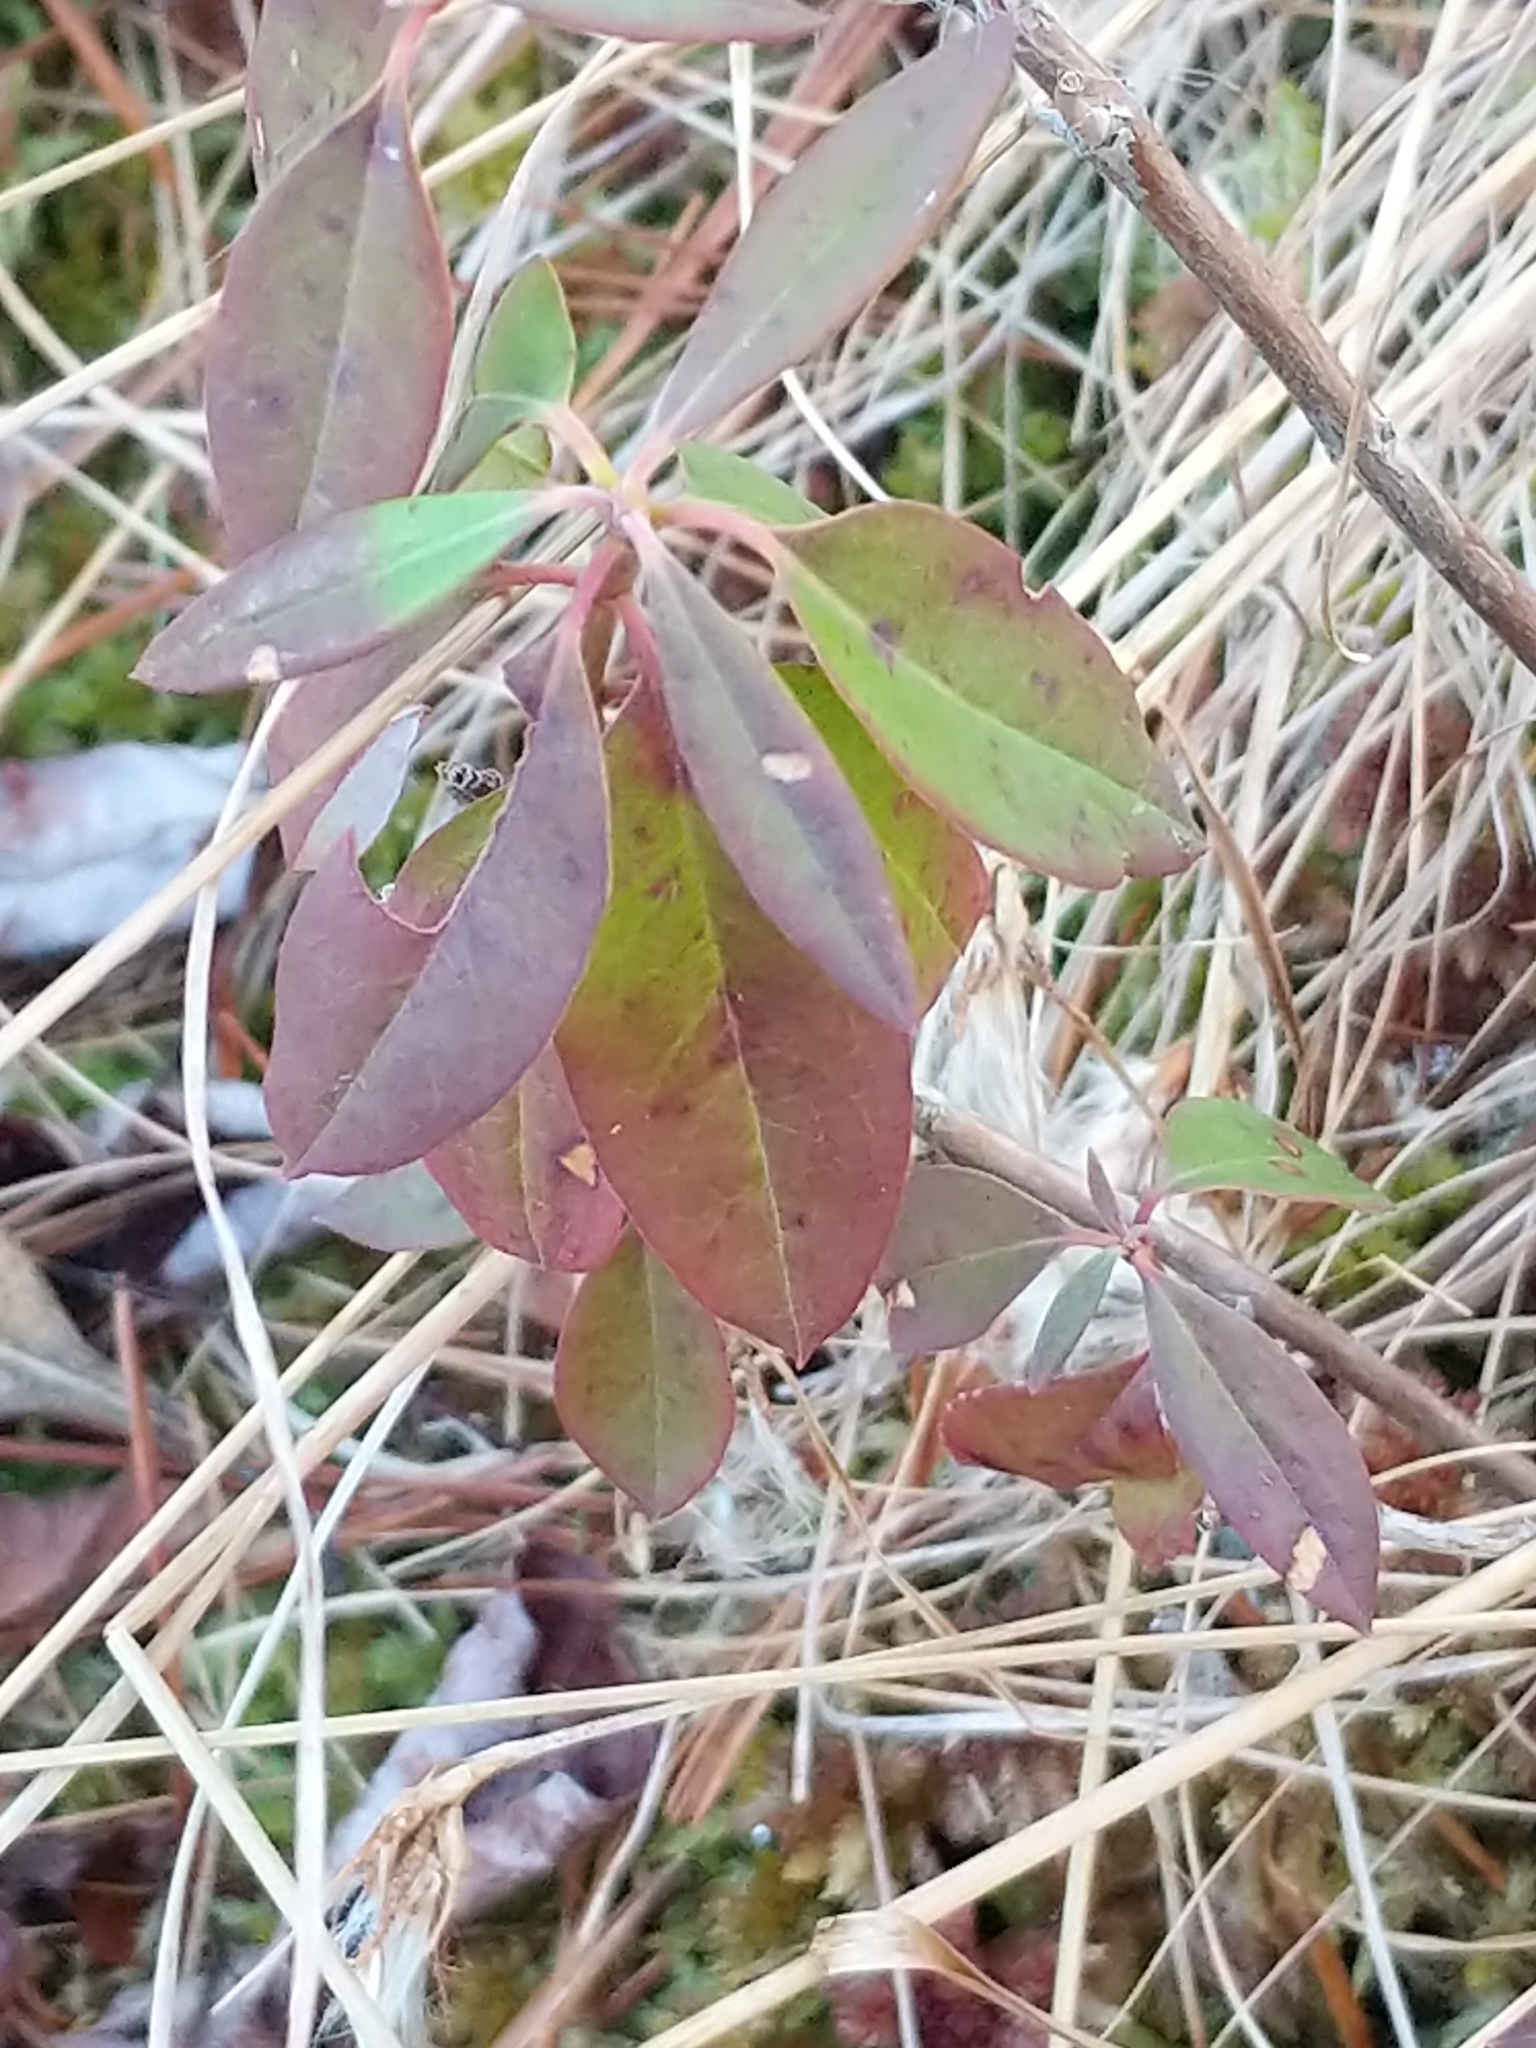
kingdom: Plantae
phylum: Tracheophyta
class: Magnoliopsida
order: Ericales
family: Ericaceae
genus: Kalmia
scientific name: Kalmia angustifolia
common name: Sheep-laurel
